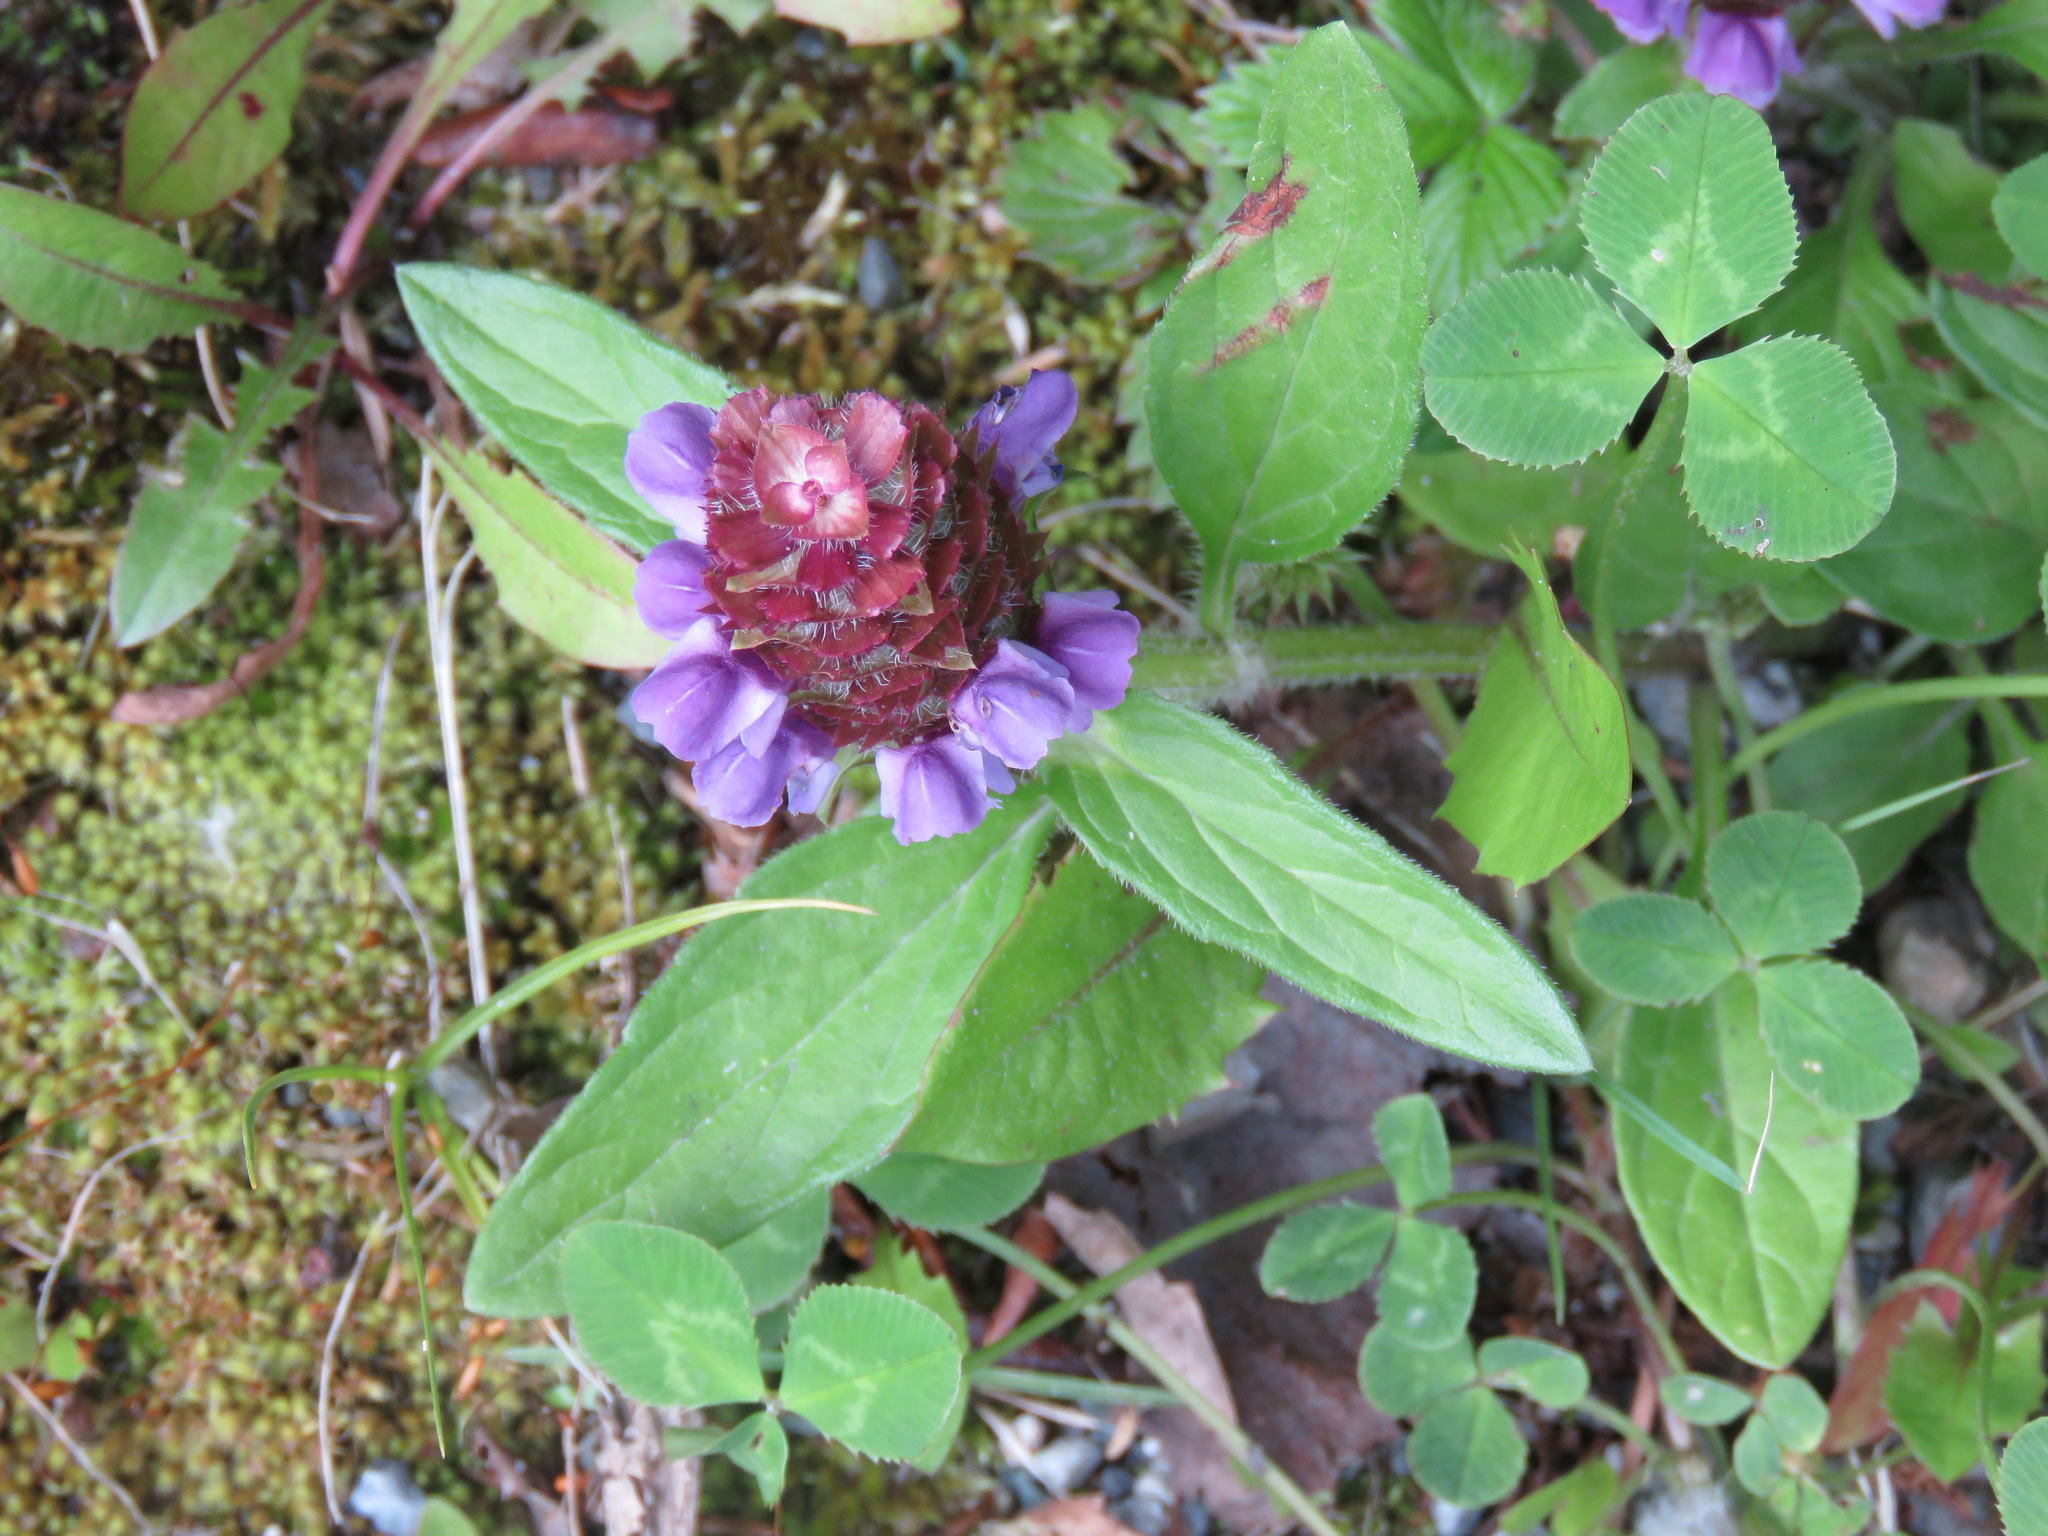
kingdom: Plantae
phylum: Tracheophyta
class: Magnoliopsida
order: Lamiales
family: Lamiaceae
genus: Prunella
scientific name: Prunella vulgaris
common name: Heal-all
